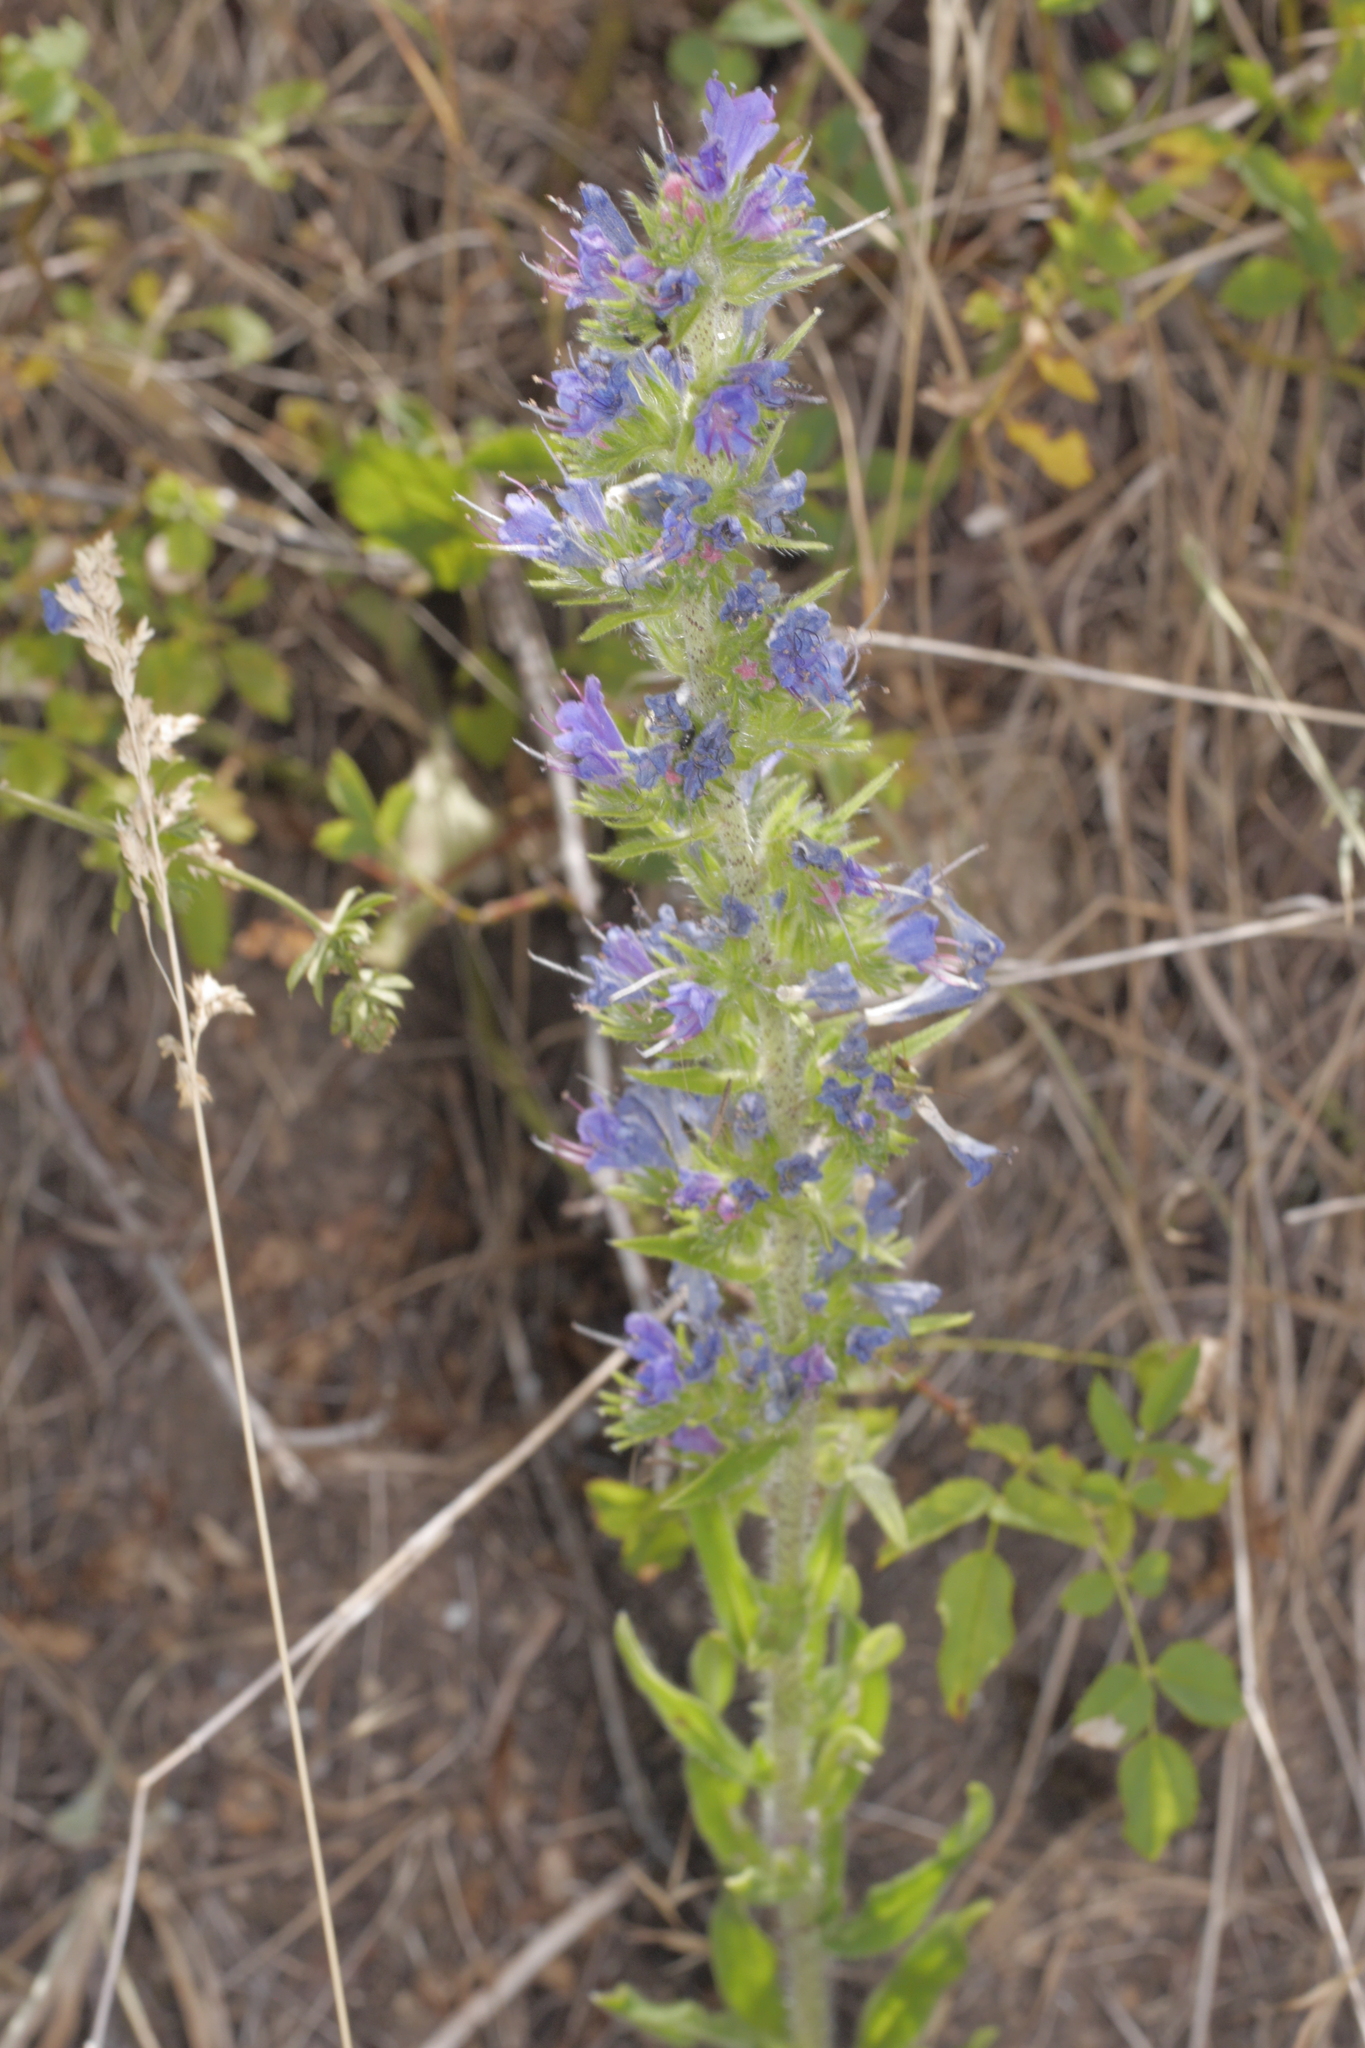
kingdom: Plantae
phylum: Tracheophyta
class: Magnoliopsida
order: Boraginales
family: Boraginaceae
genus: Echium
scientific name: Echium vulgare
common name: Common viper's bugloss
